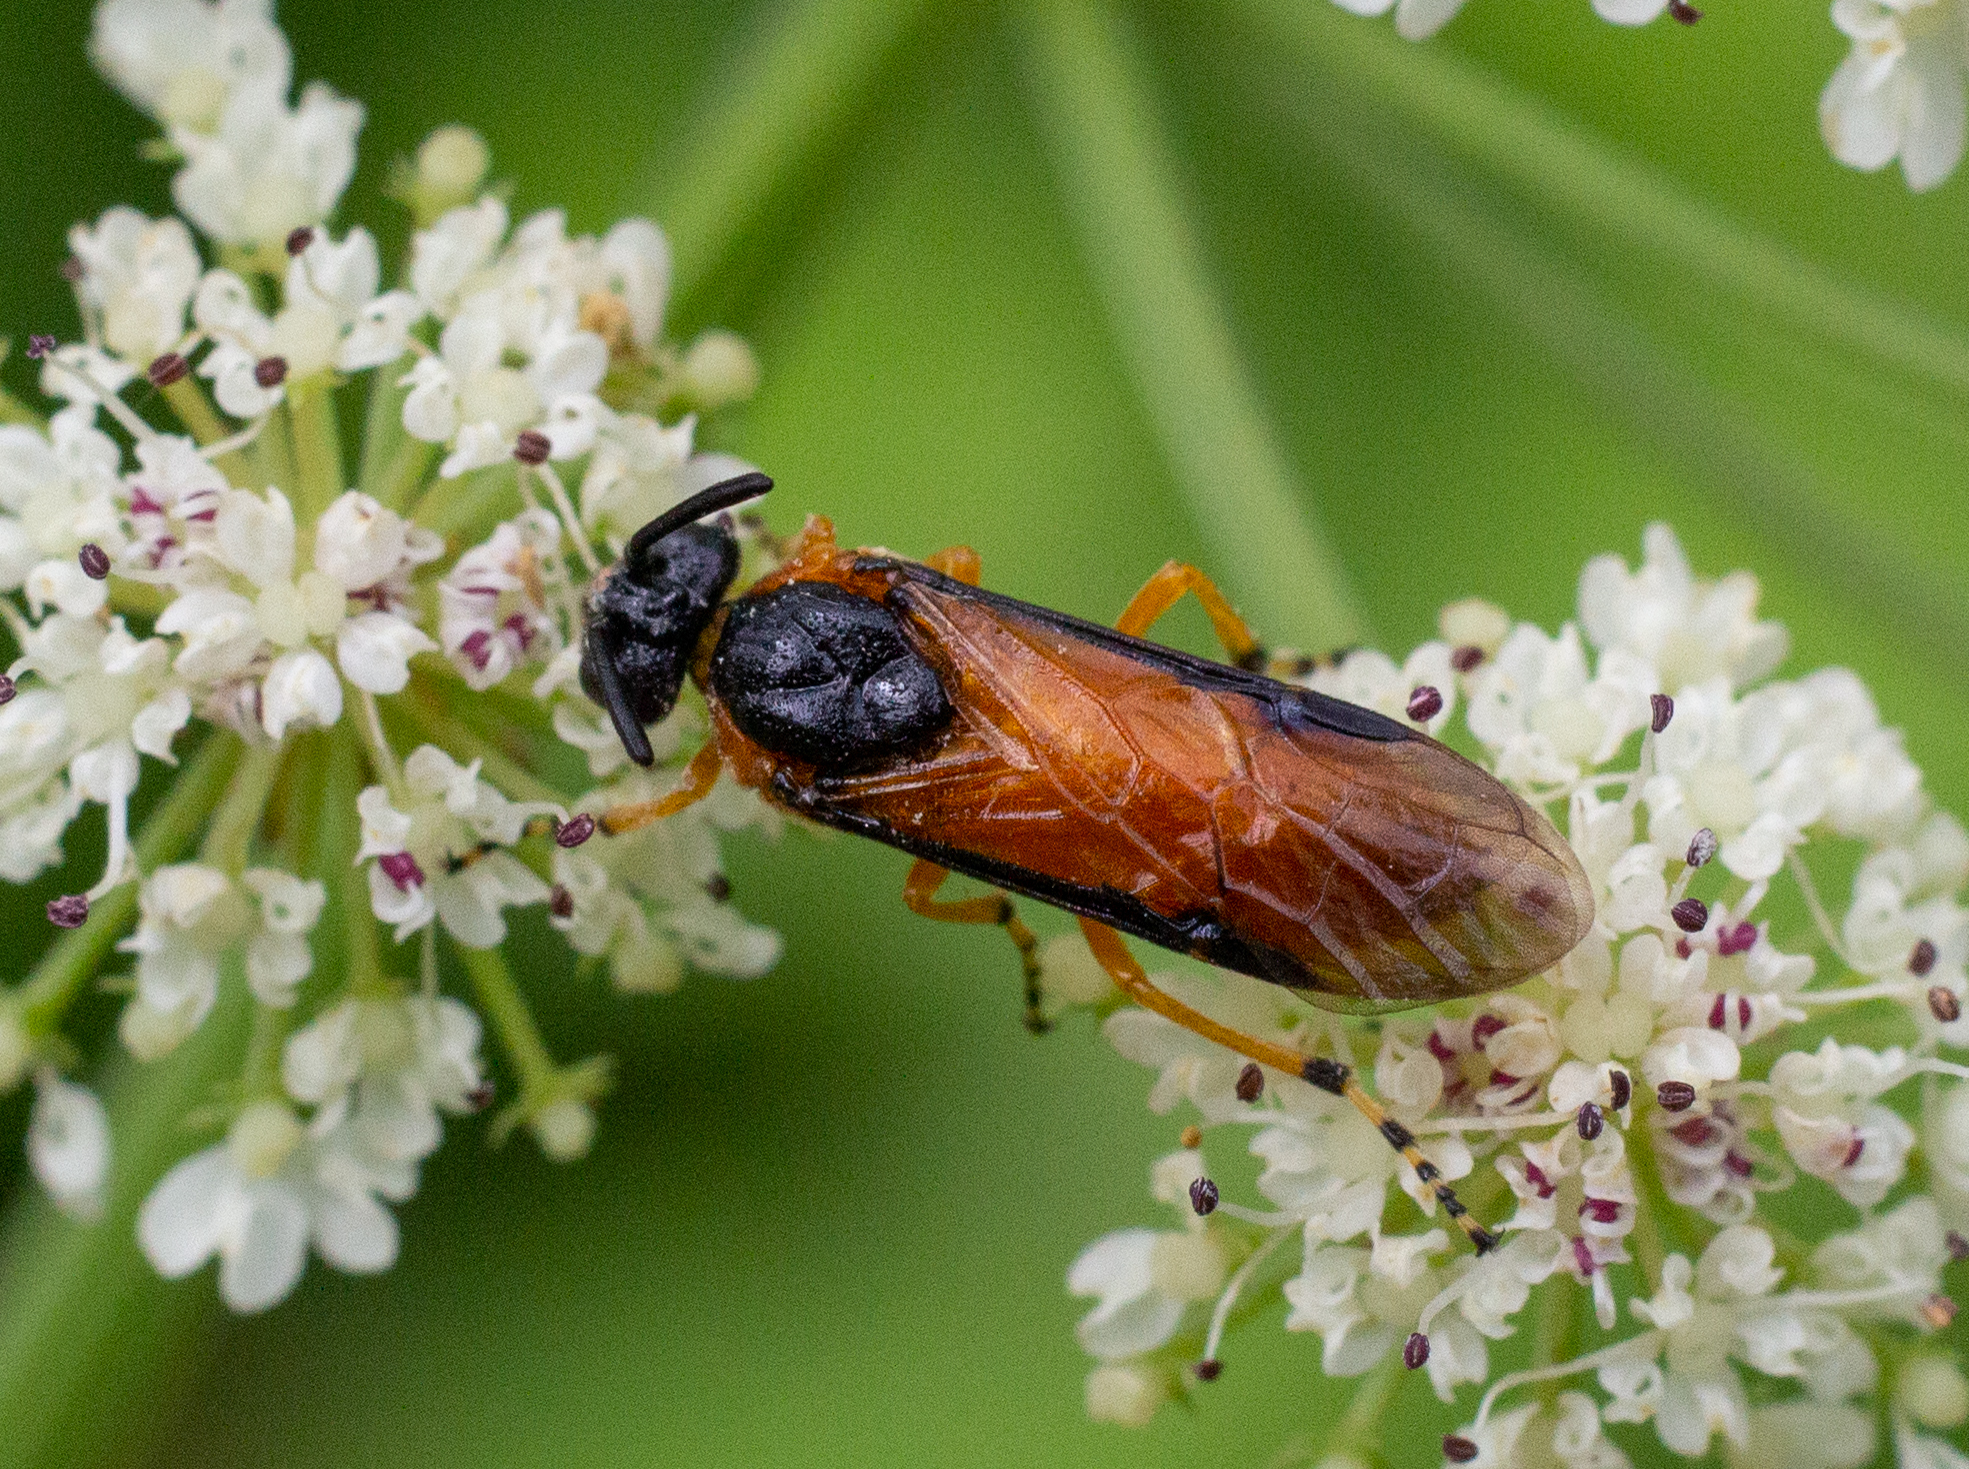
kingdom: Animalia
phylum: Arthropoda
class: Insecta
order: Hymenoptera
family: Argidae
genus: Arge
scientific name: Arge ochropus
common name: Argid sawfly
